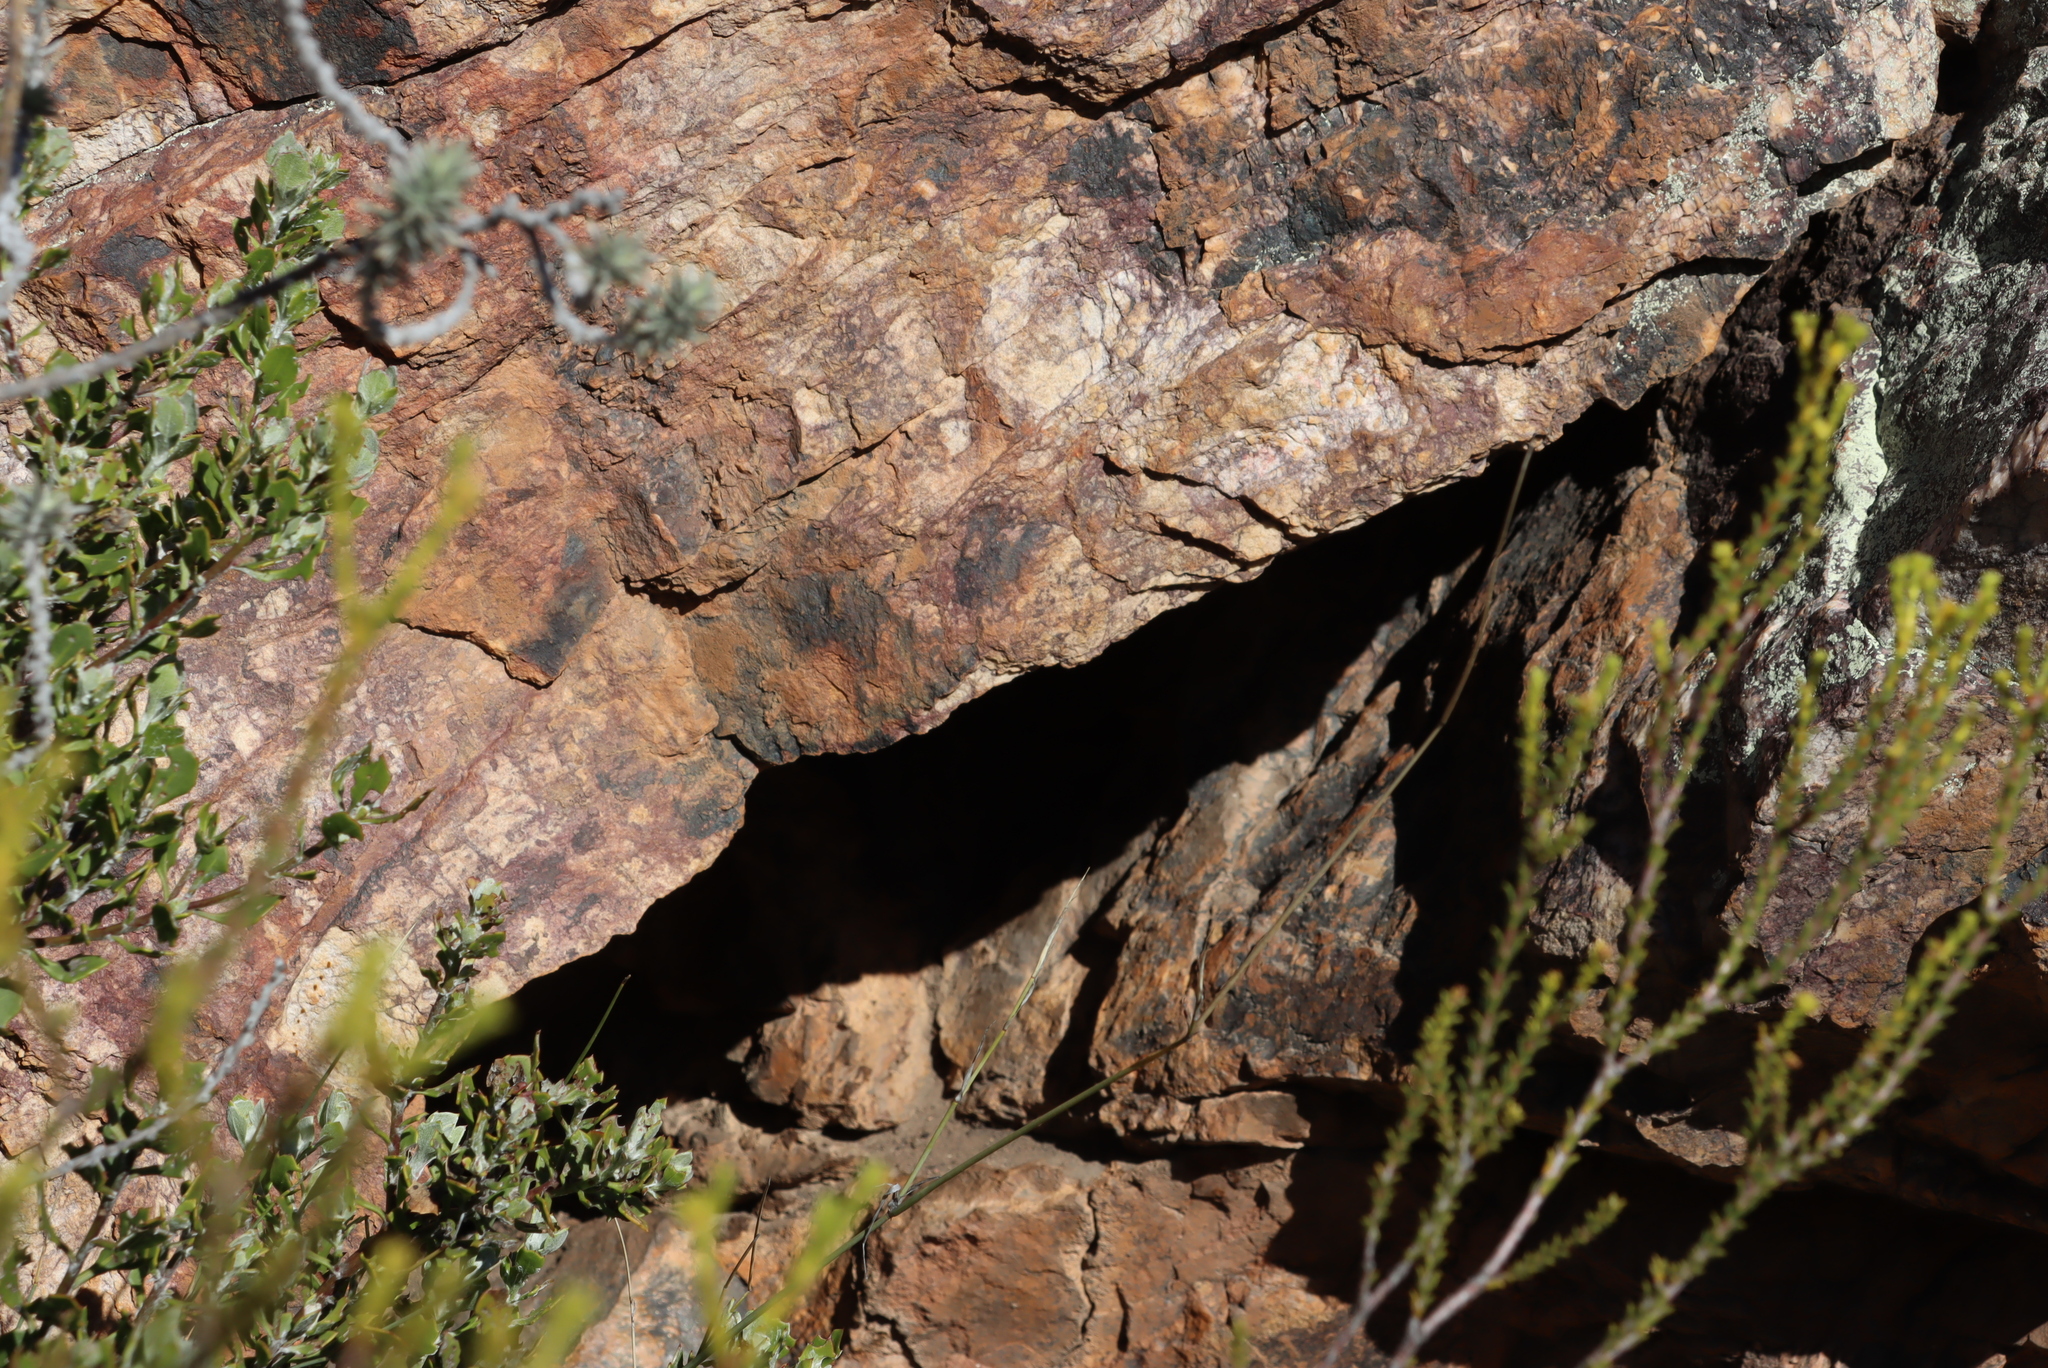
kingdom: Animalia
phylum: Arthropoda
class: Insecta
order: Hymenoptera
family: Apidae
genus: Apis
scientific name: Apis mellifera
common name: Honey bee
